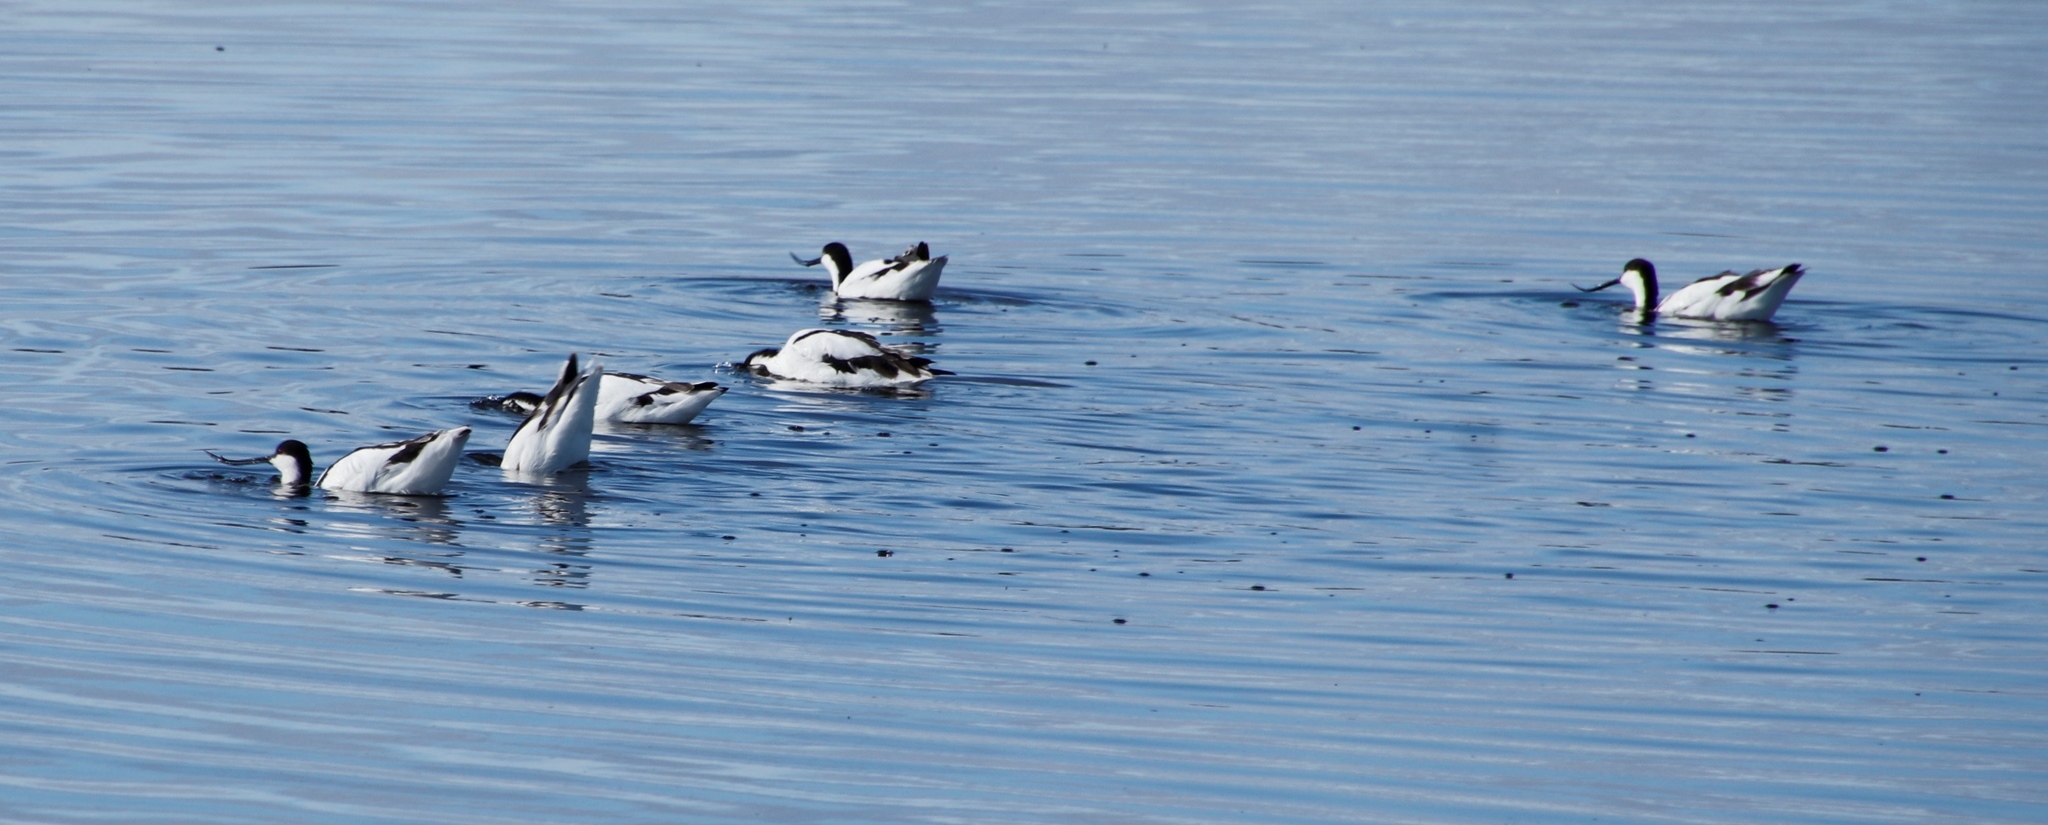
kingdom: Animalia
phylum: Chordata
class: Aves
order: Charadriiformes
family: Recurvirostridae
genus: Recurvirostra
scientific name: Recurvirostra avosetta
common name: Pied avocet
